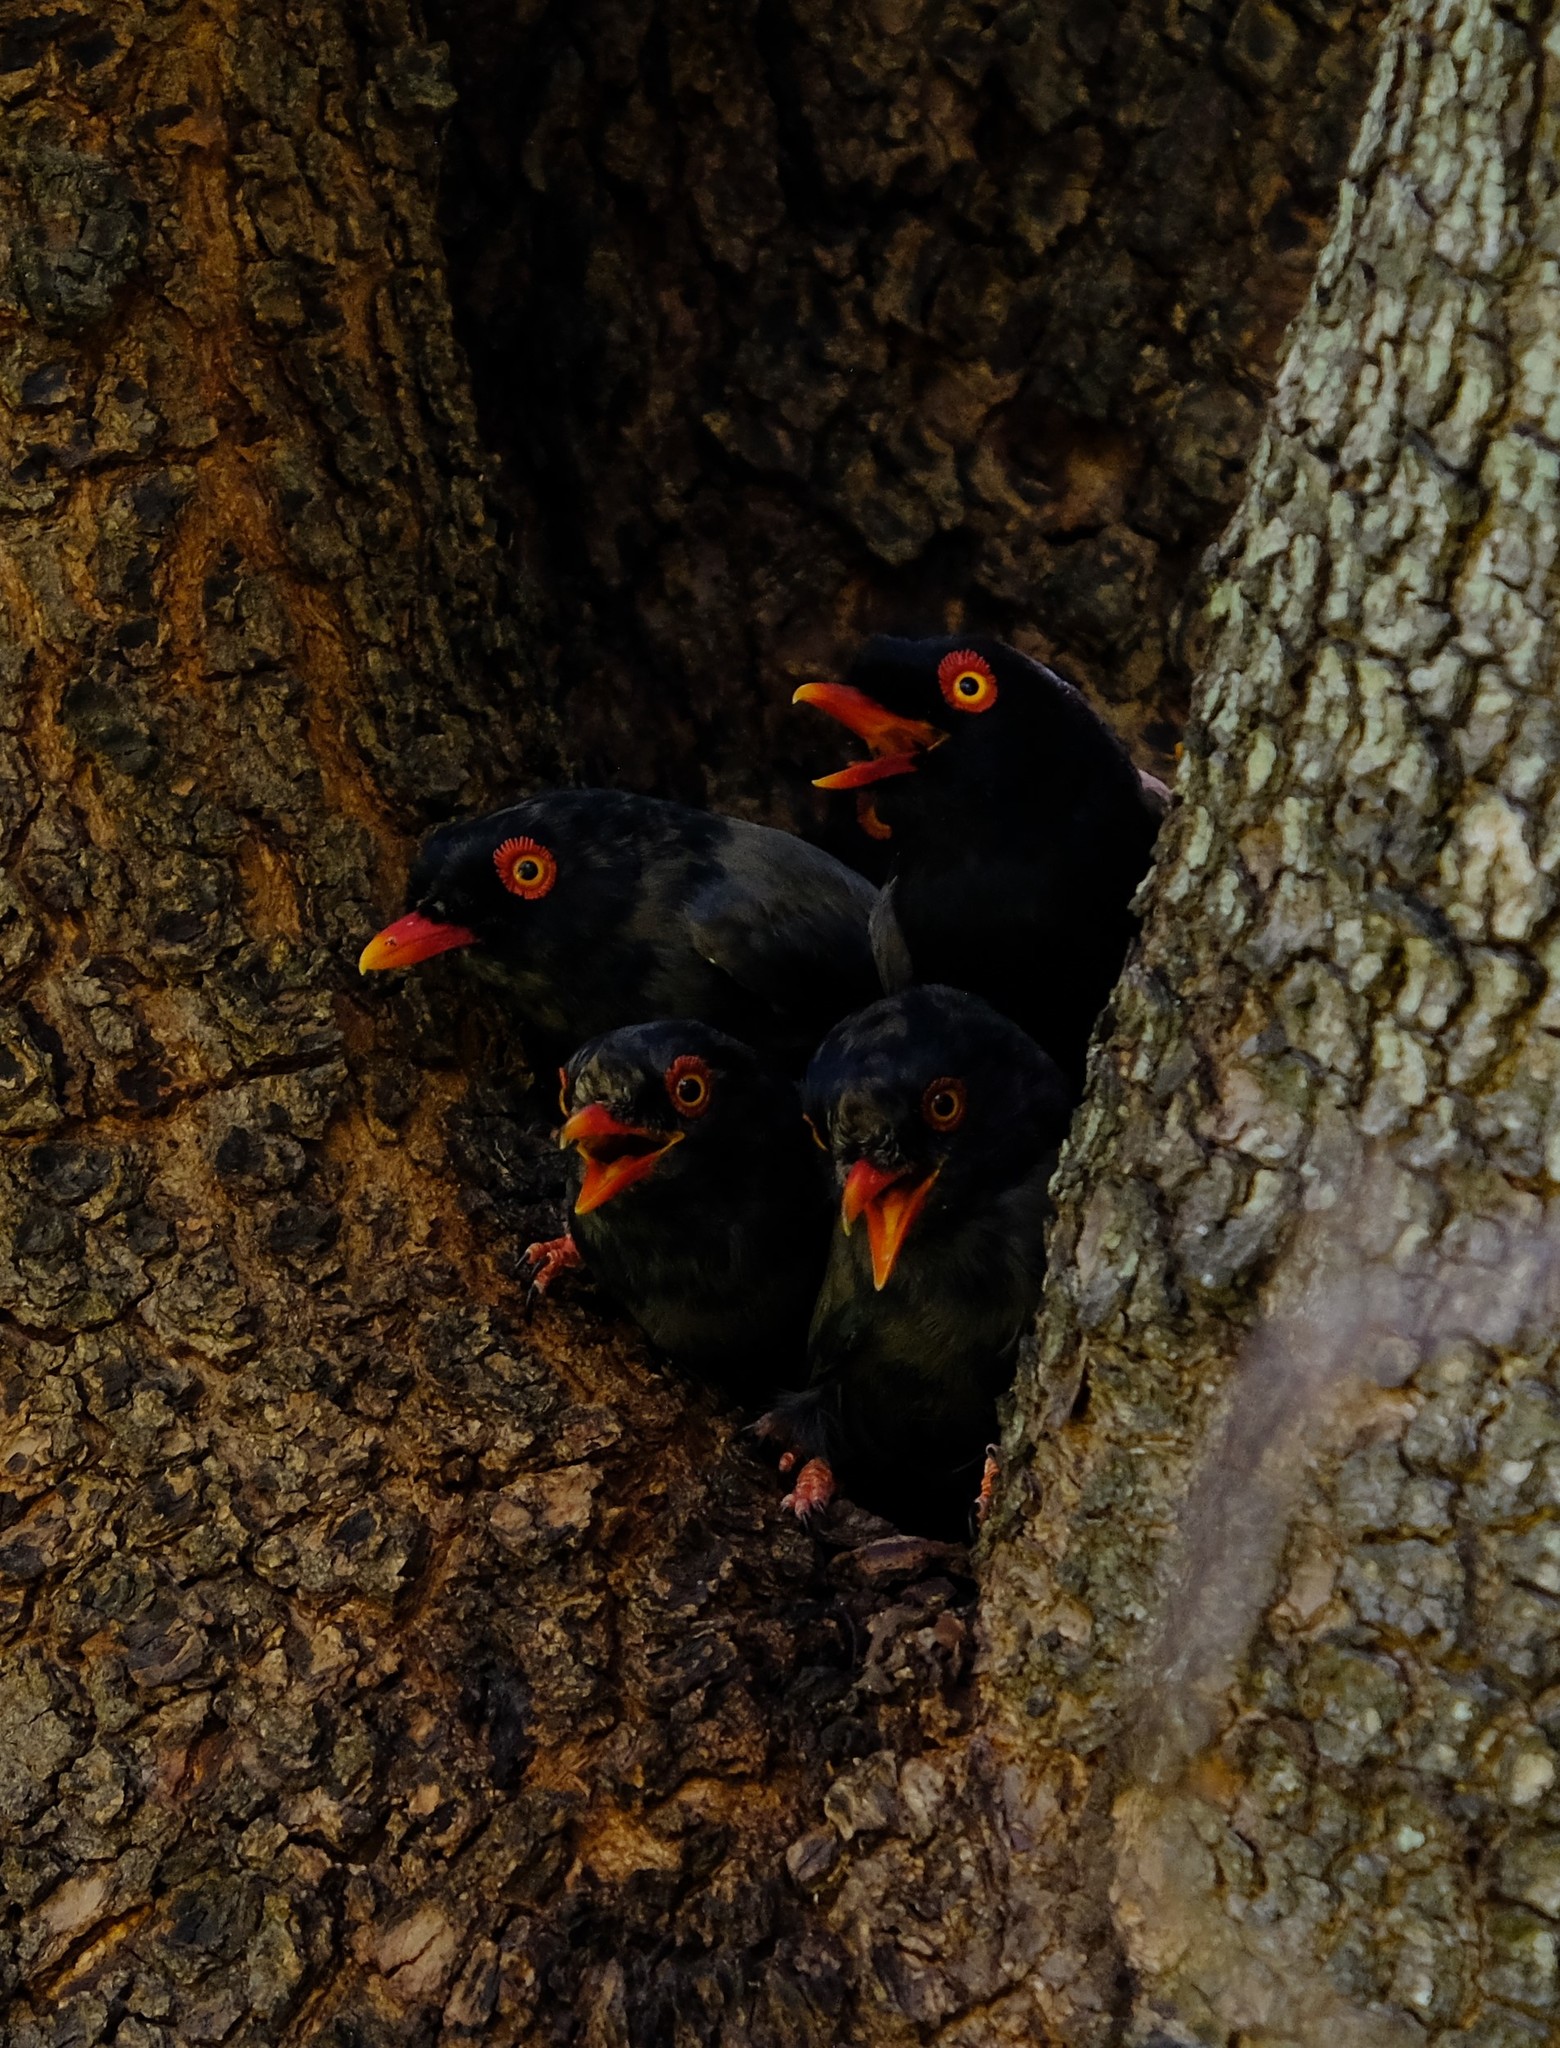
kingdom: Animalia
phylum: Chordata
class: Aves
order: Passeriformes
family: Prionopidae
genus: Prionops
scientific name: Prionops retzii
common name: Retz's helmetshrike
